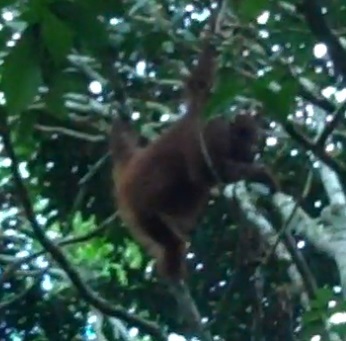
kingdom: Animalia
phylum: Chordata
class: Mammalia
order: Primates
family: Hominidae
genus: Pongo
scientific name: Pongo pygmaeus
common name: Bornean orangutan
